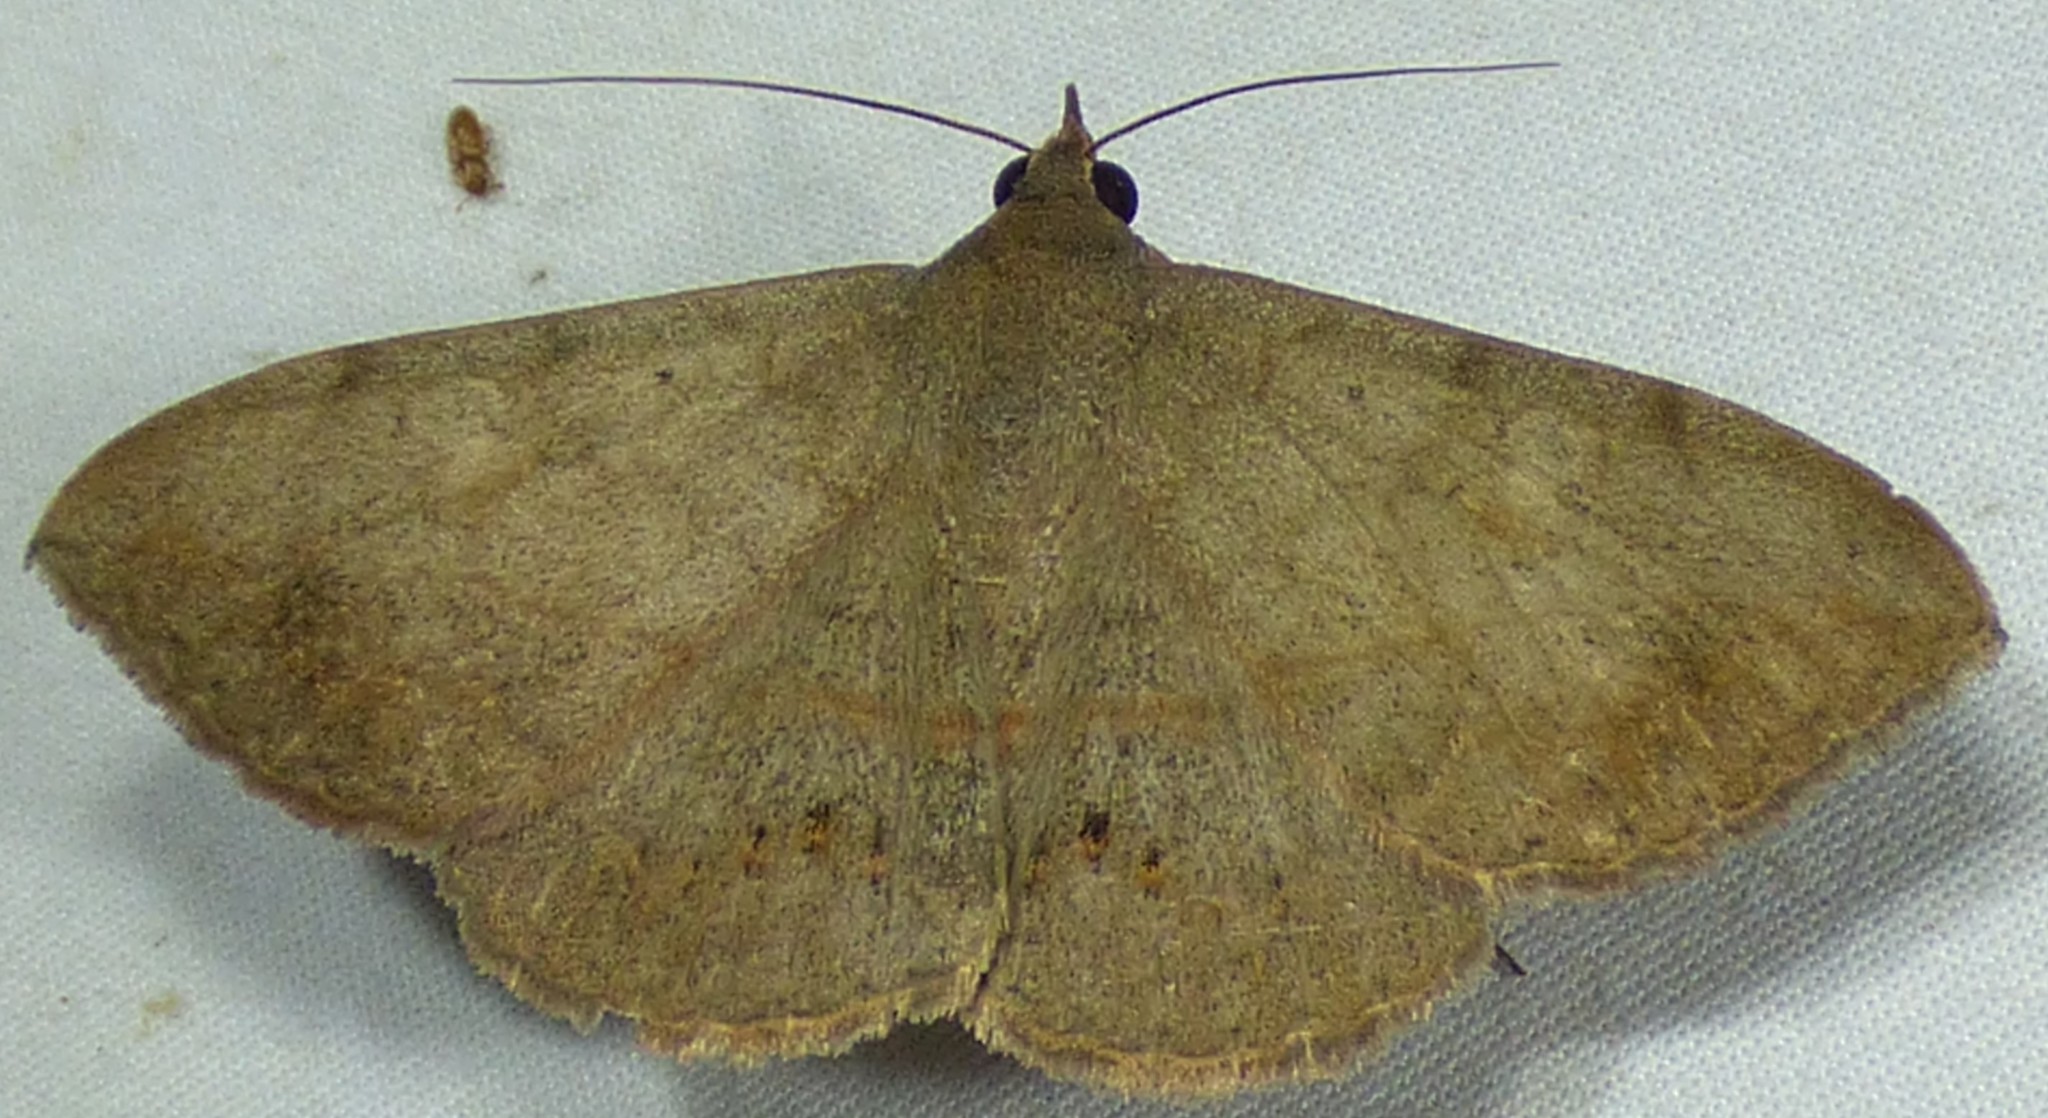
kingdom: Animalia
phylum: Arthropoda
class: Insecta
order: Lepidoptera
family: Erebidae
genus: Anticarsia
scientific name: Anticarsia gemmatalis
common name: Cutworm moth
